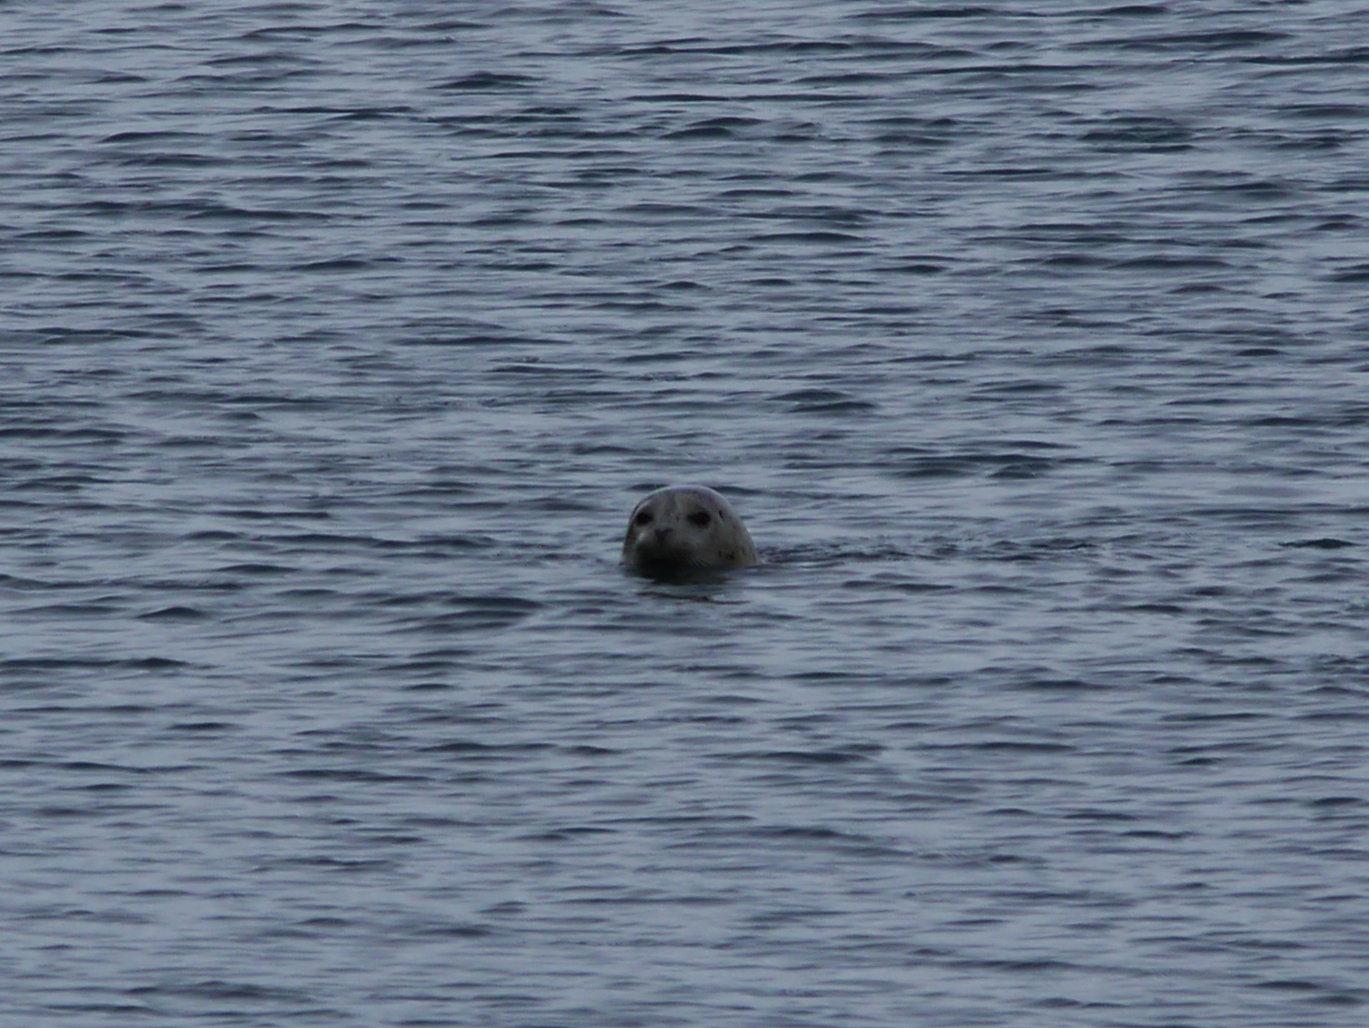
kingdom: Animalia
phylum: Chordata
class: Mammalia
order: Carnivora
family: Phocidae
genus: Phoca
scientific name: Phoca vitulina
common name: Harbor seal
